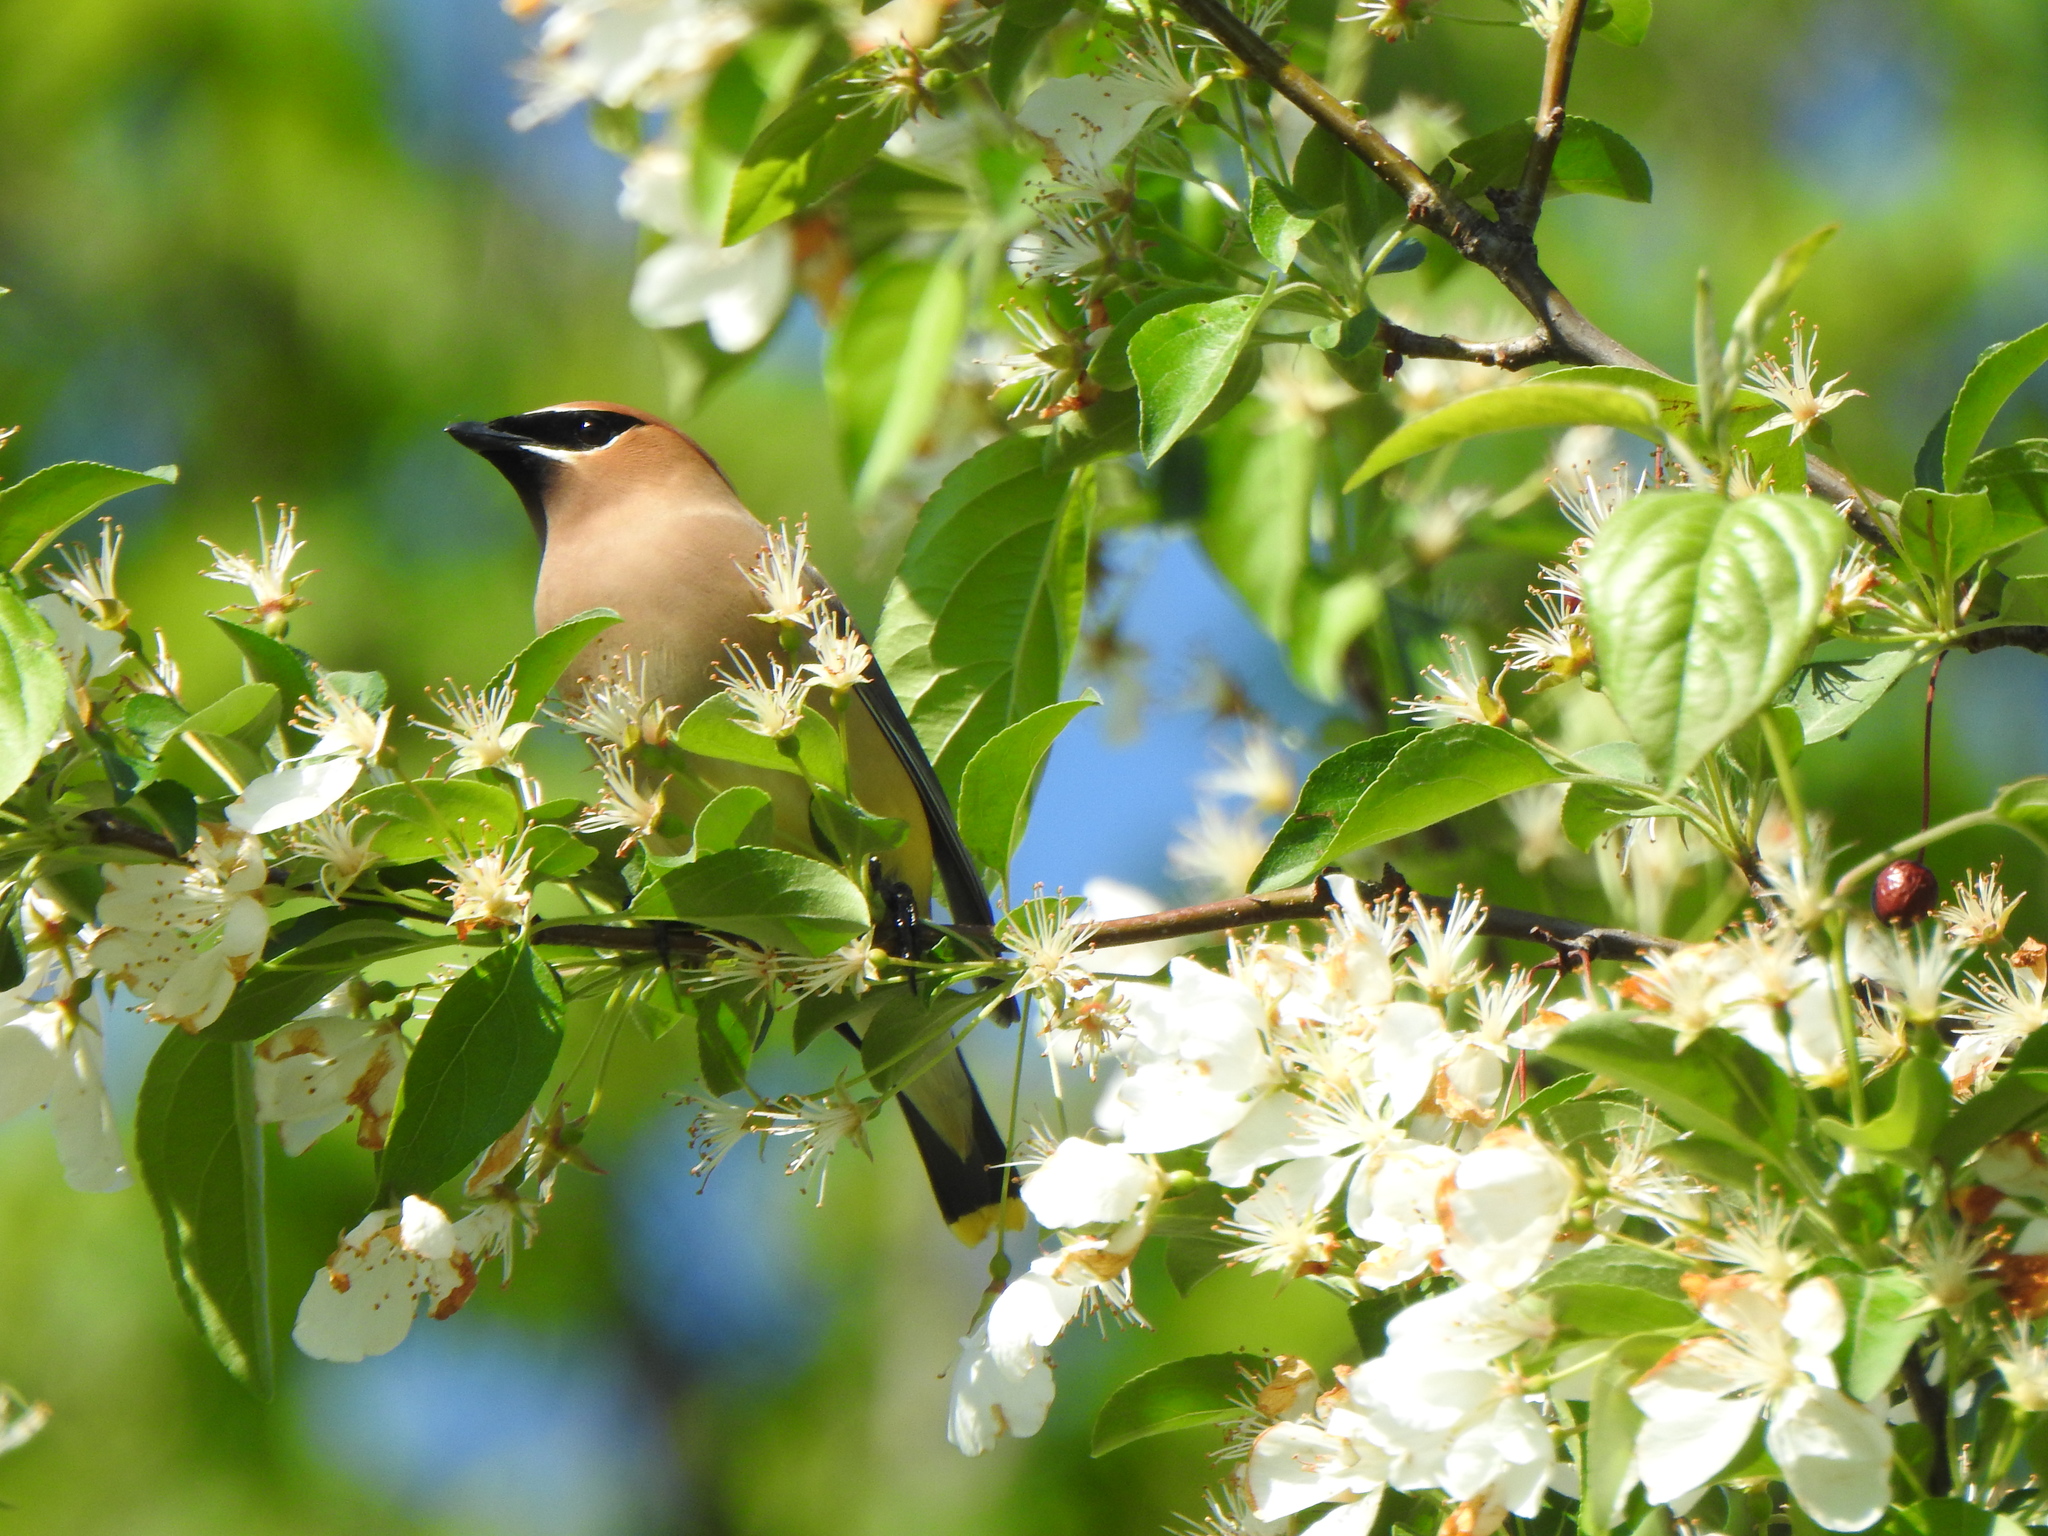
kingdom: Animalia
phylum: Chordata
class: Aves
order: Passeriformes
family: Bombycillidae
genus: Bombycilla
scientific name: Bombycilla cedrorum
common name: Cedar waxwing
